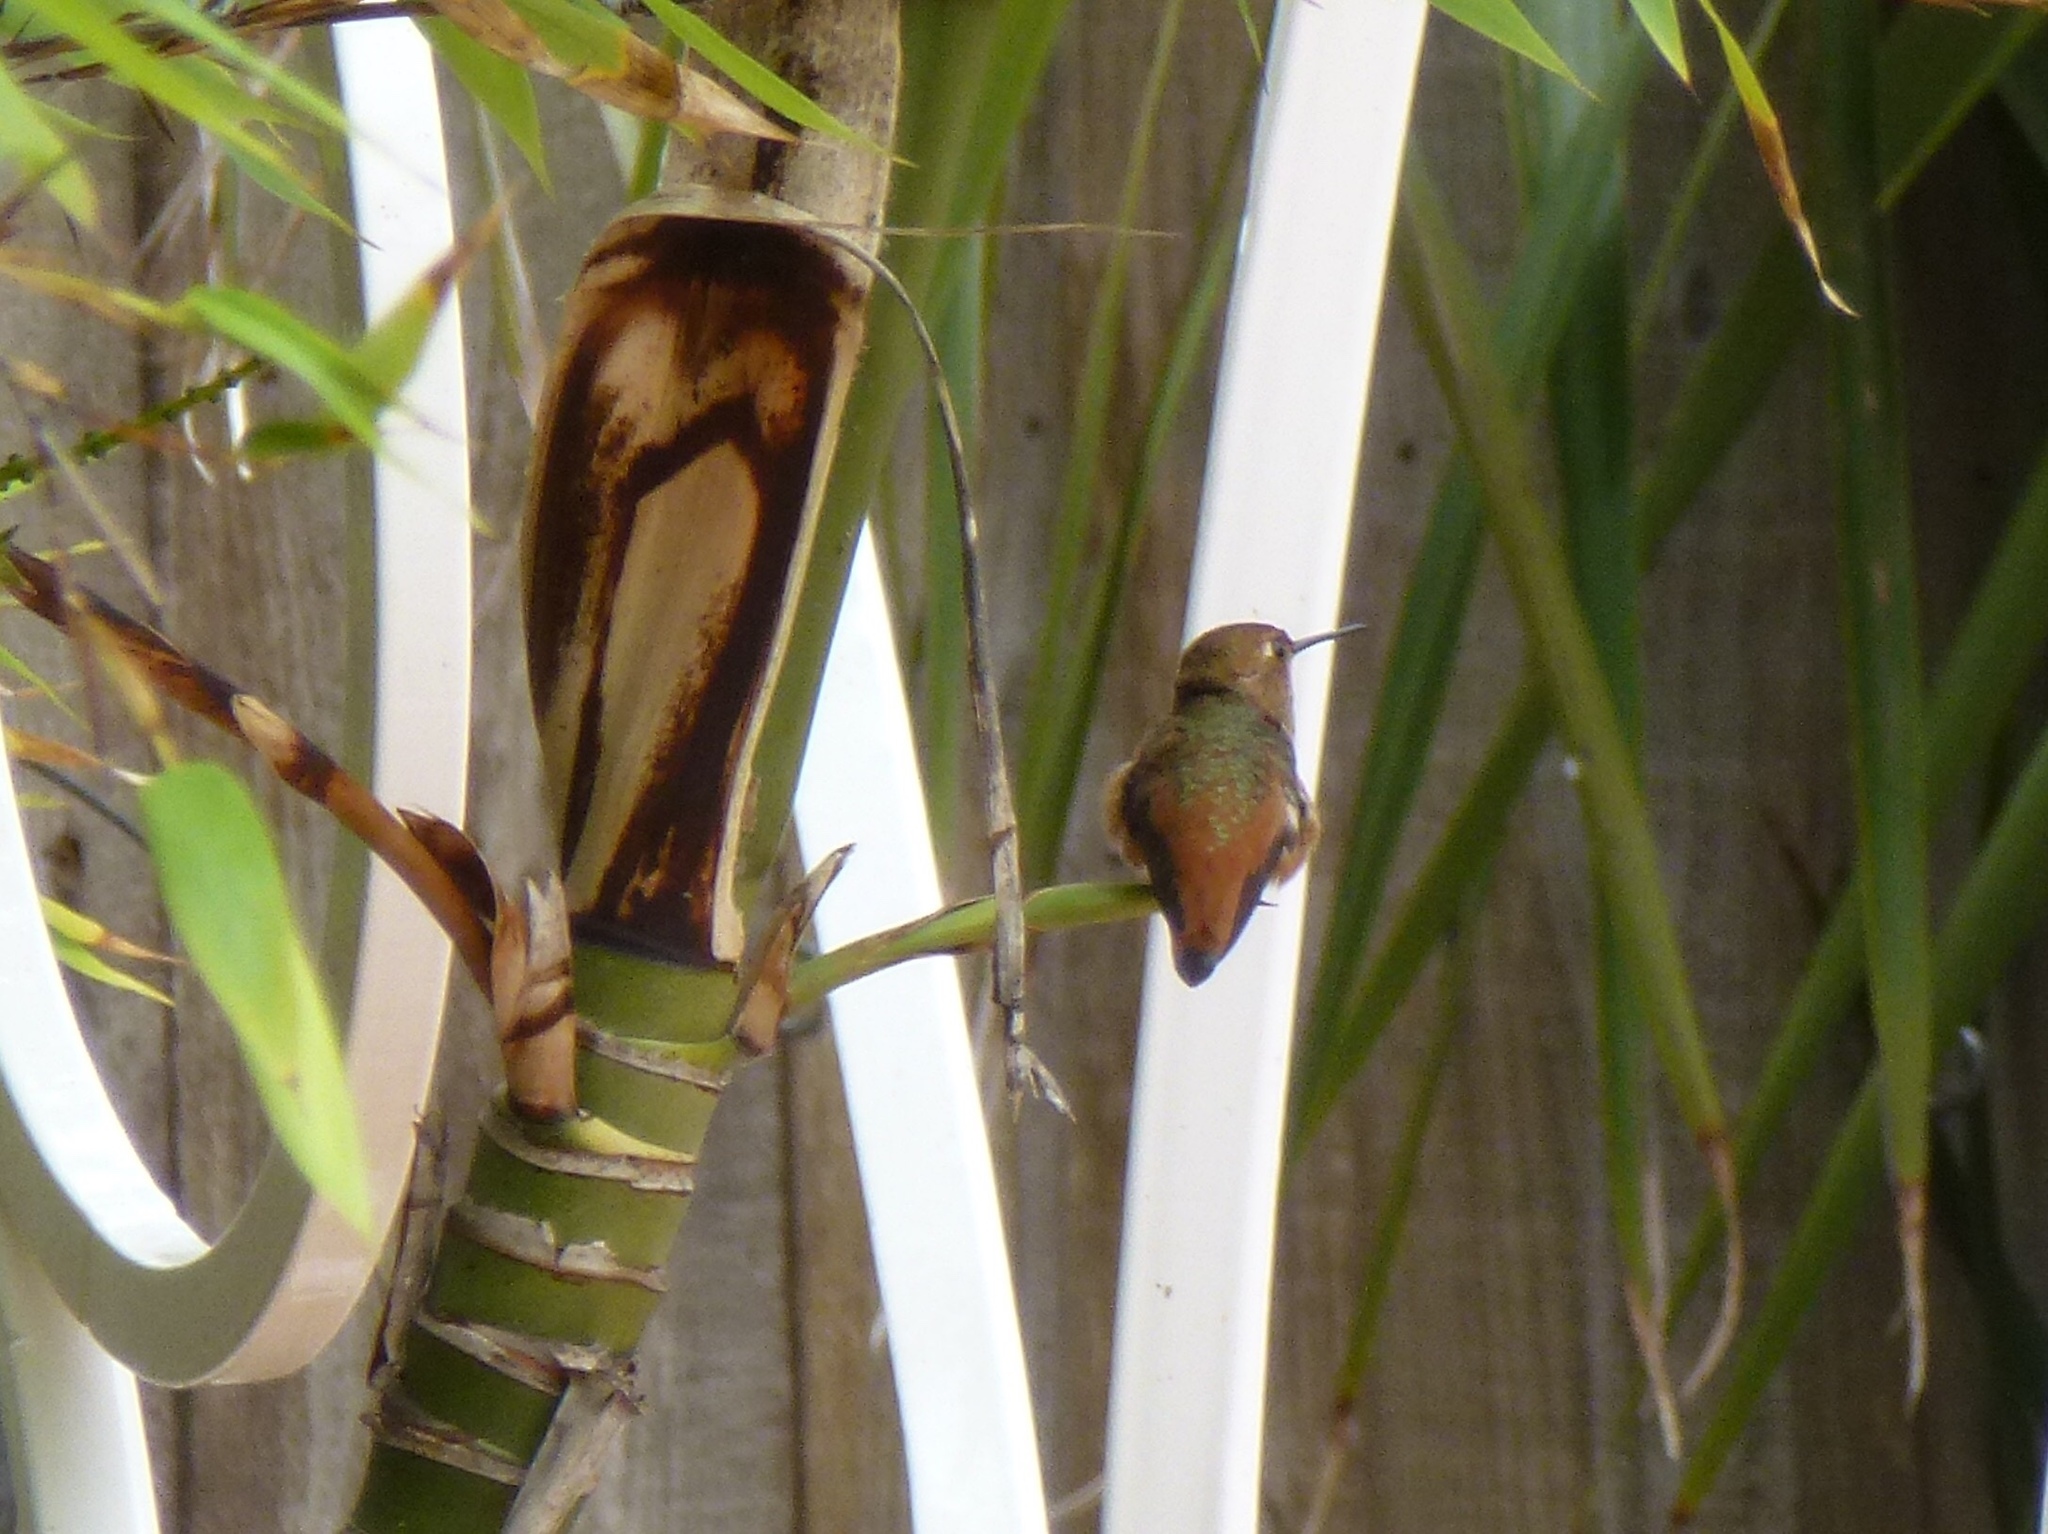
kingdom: Animalia
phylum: Chordata
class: Aves
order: Apodiformes
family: Trochilidae
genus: Selasphorus
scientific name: Selasphorus sasin
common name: Allen's hummingbird
